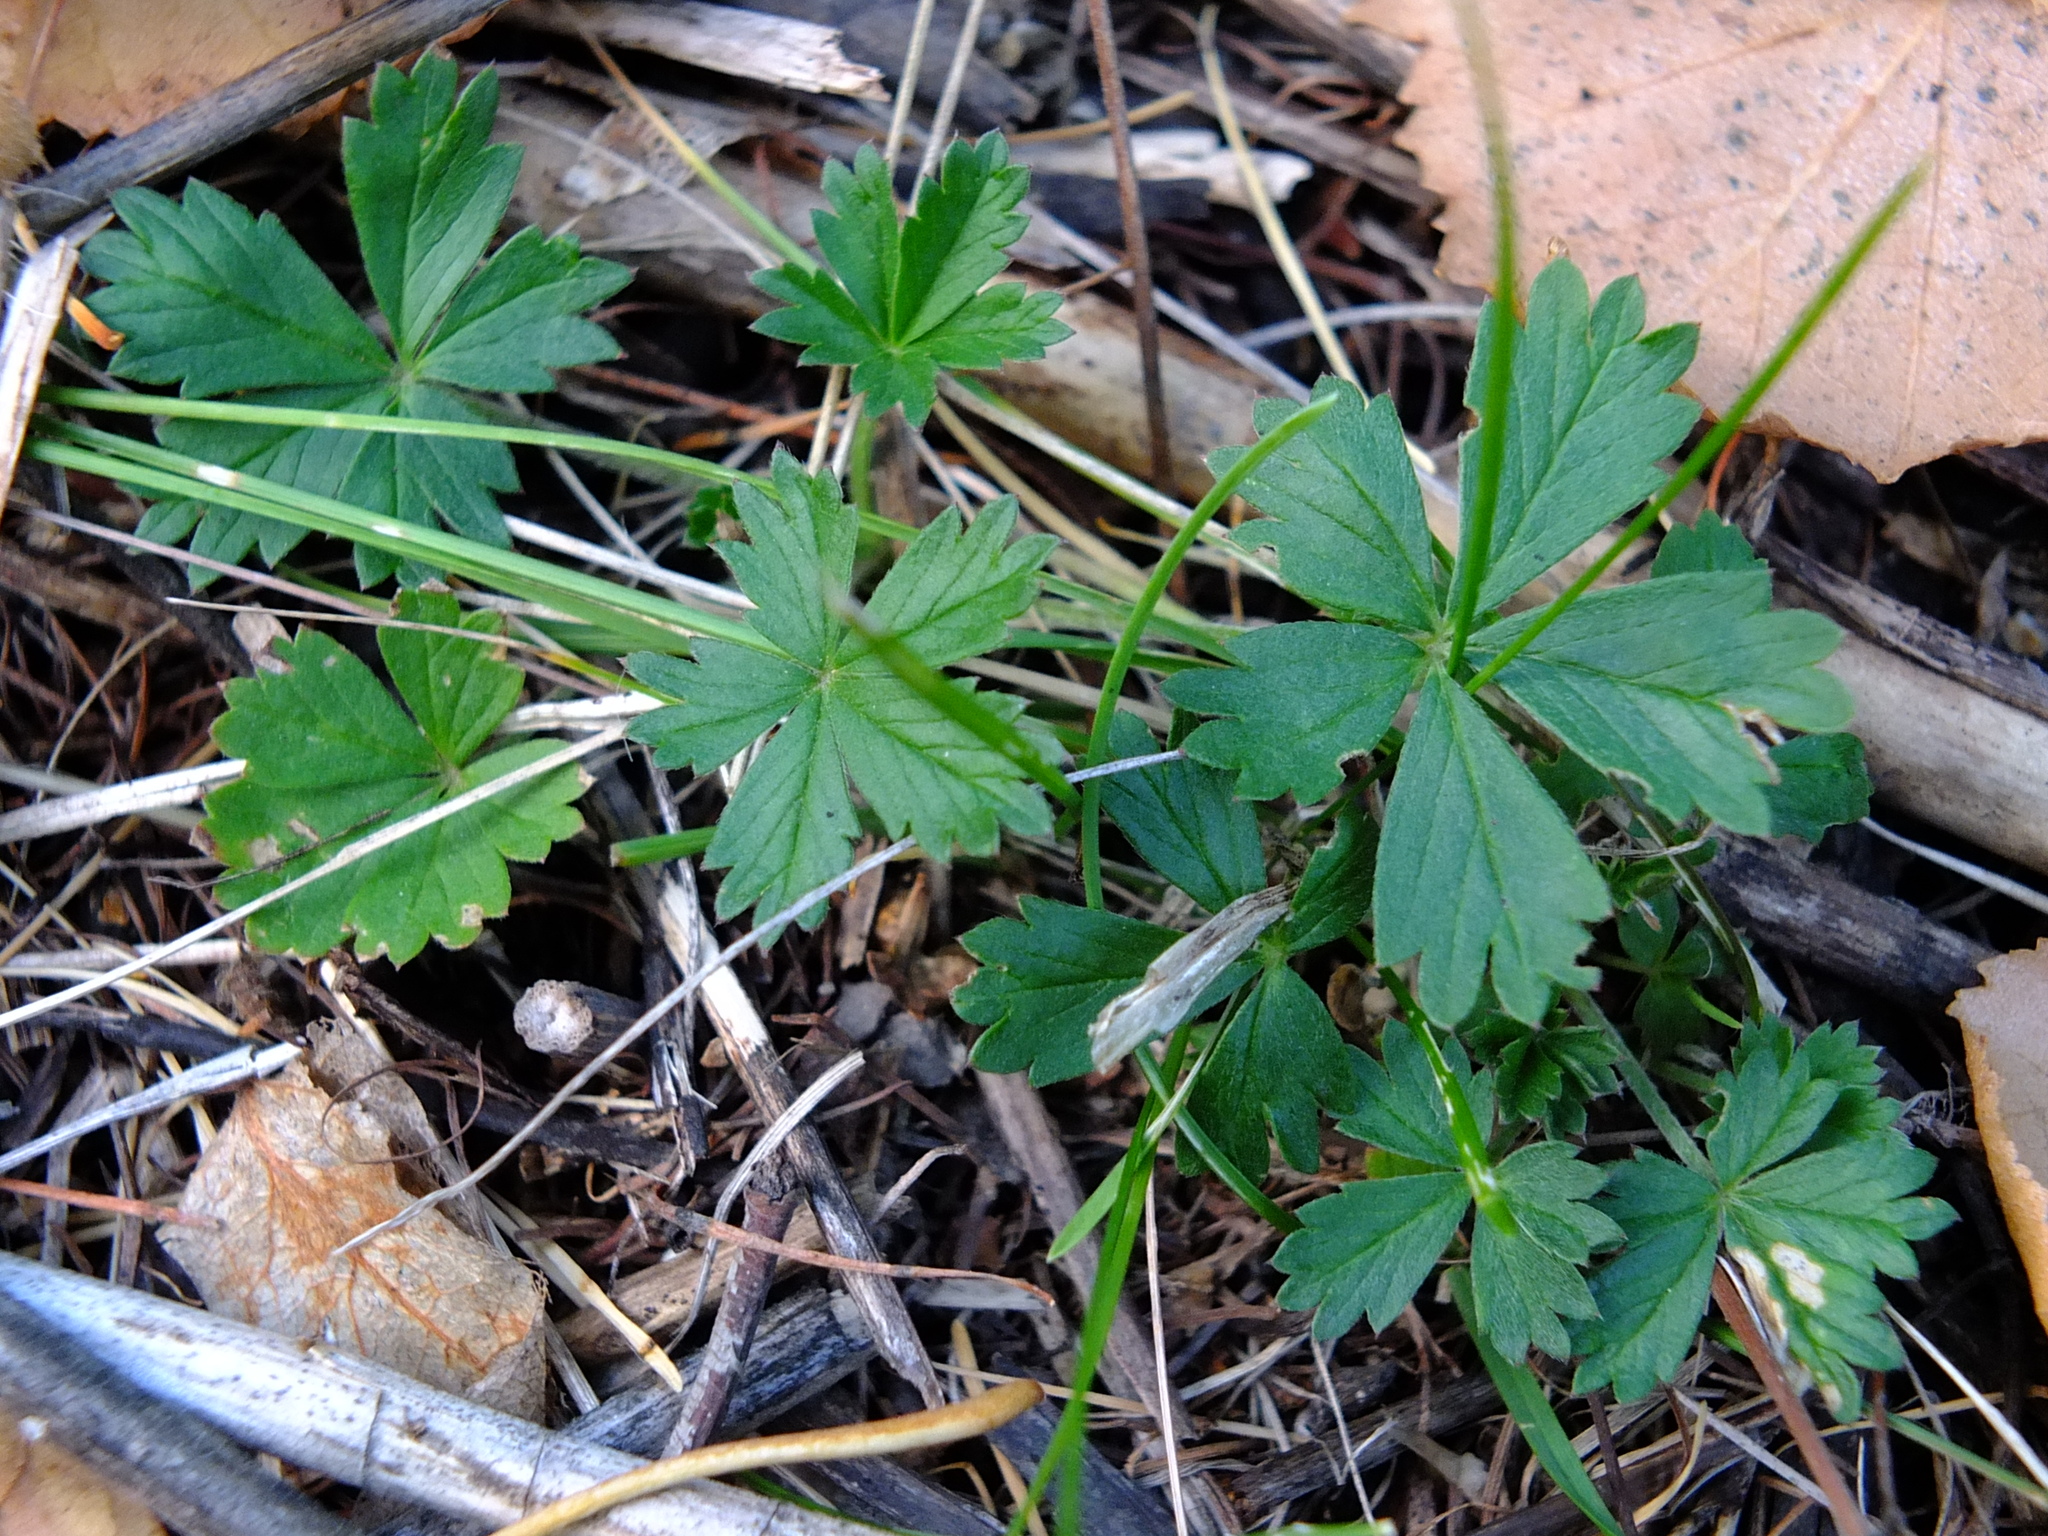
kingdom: Plantae
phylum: Tracheophyta
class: Magnoliopsida
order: Rosales
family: Rosaceae
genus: Potentilla
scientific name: Potentilla argentea
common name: Hoary cinquefoil
